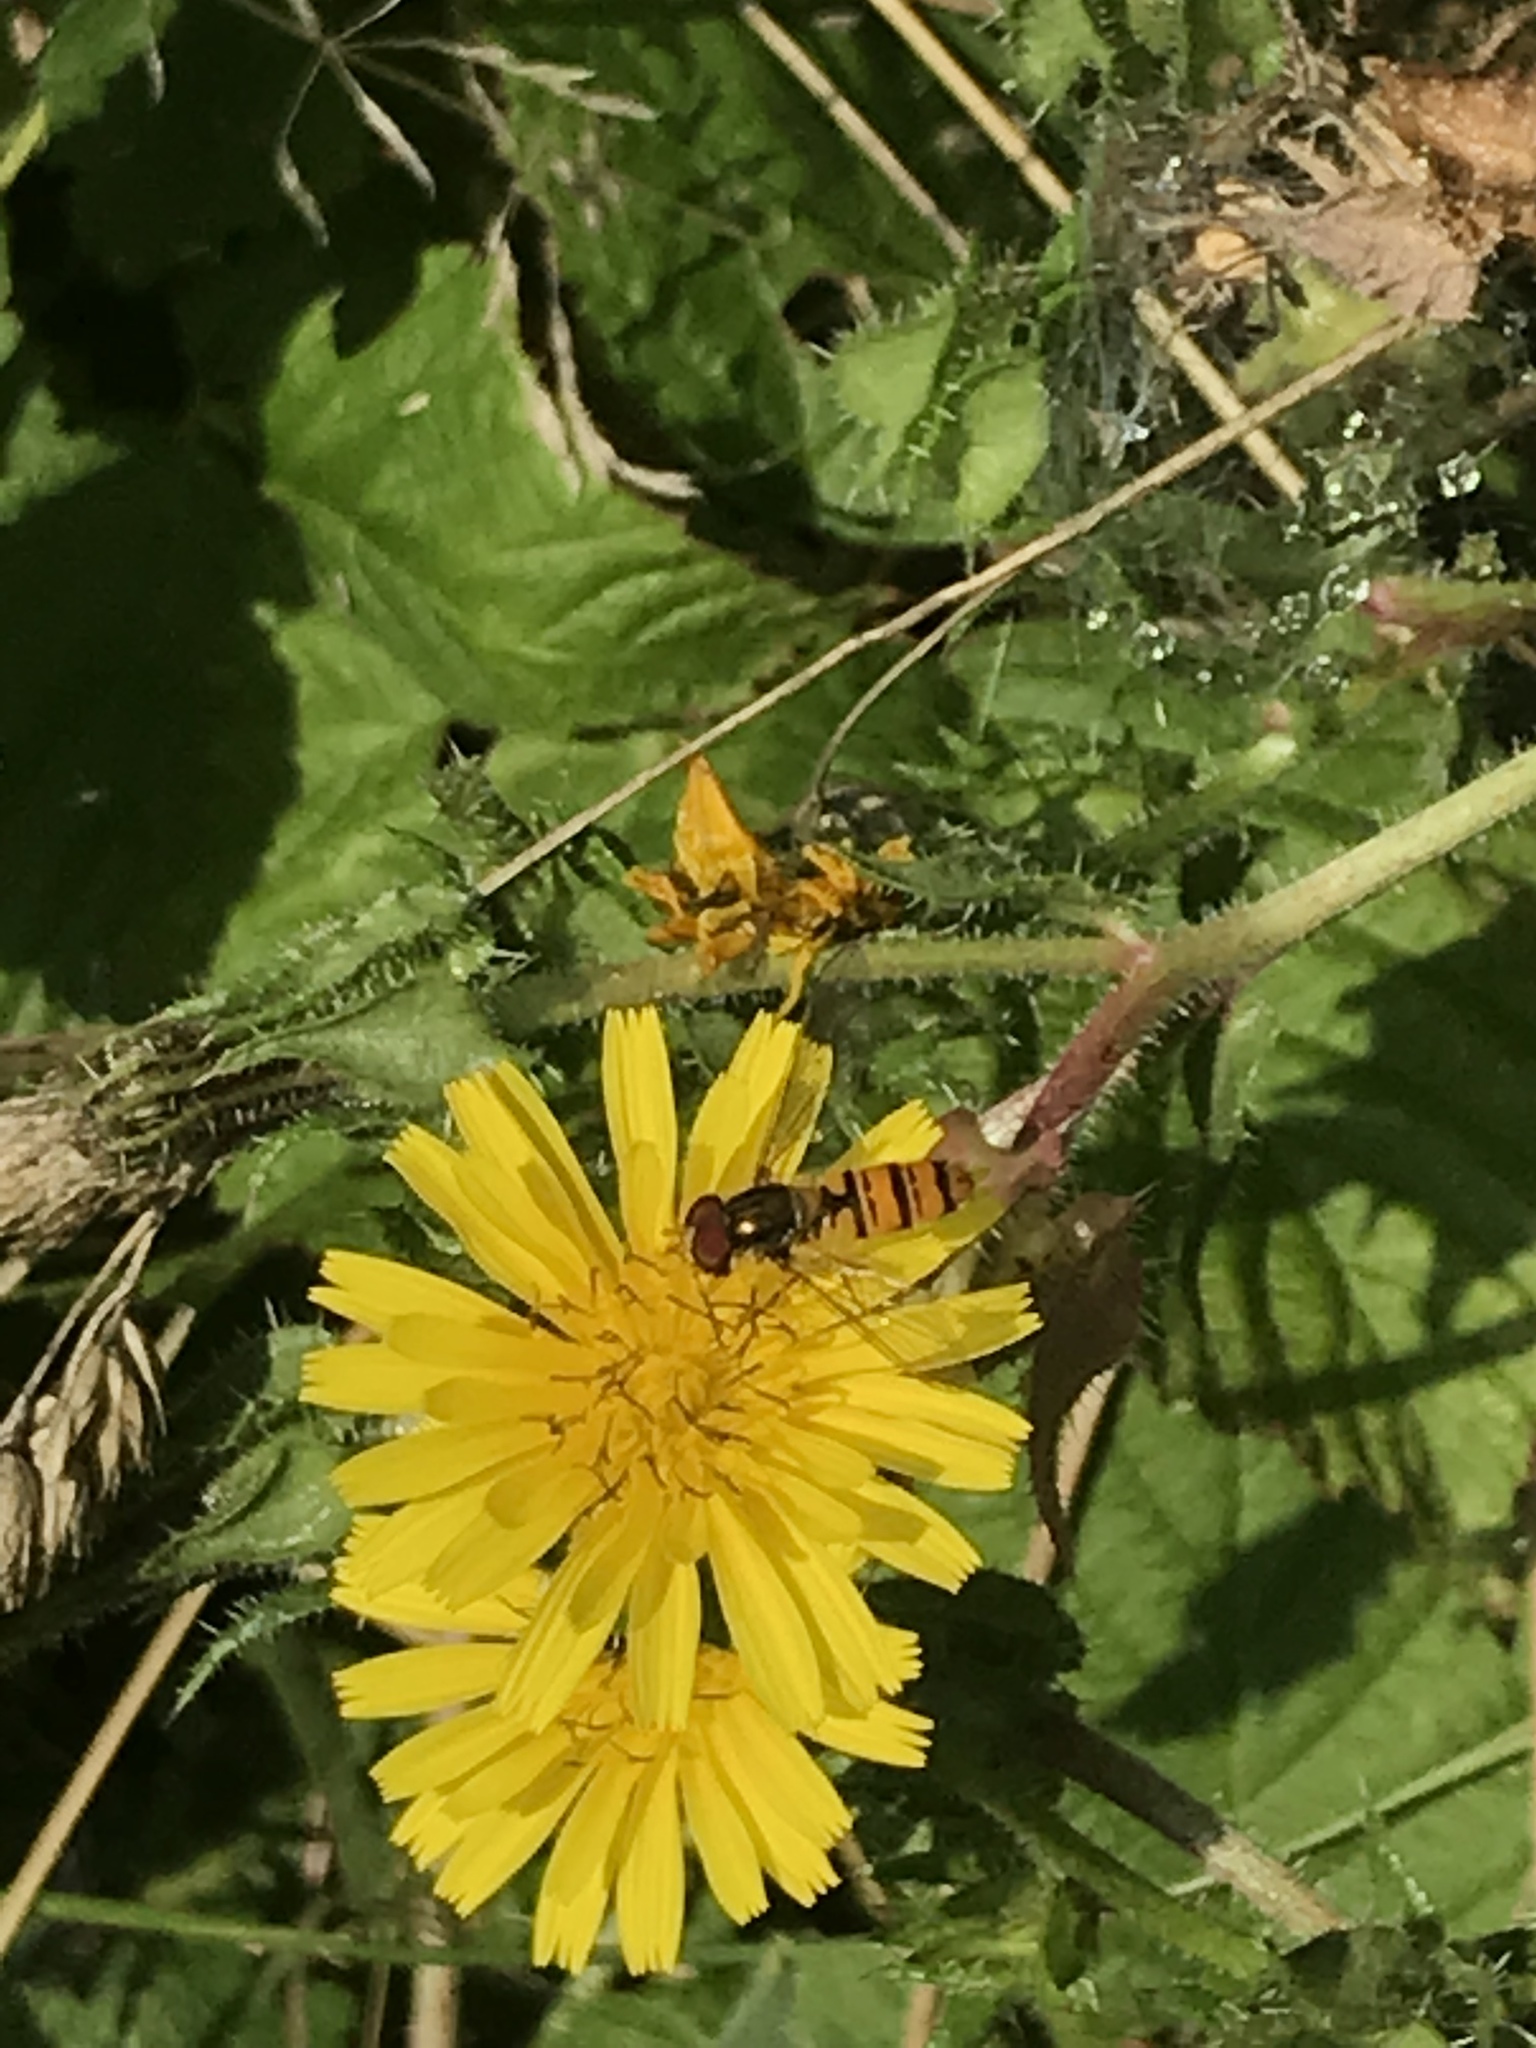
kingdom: Animalia
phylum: Arthropoda
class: Insecta
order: Diptera
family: Syrphidae
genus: Episyrphus
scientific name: Episyrphus balteatus
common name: Marmalade hoverfly
